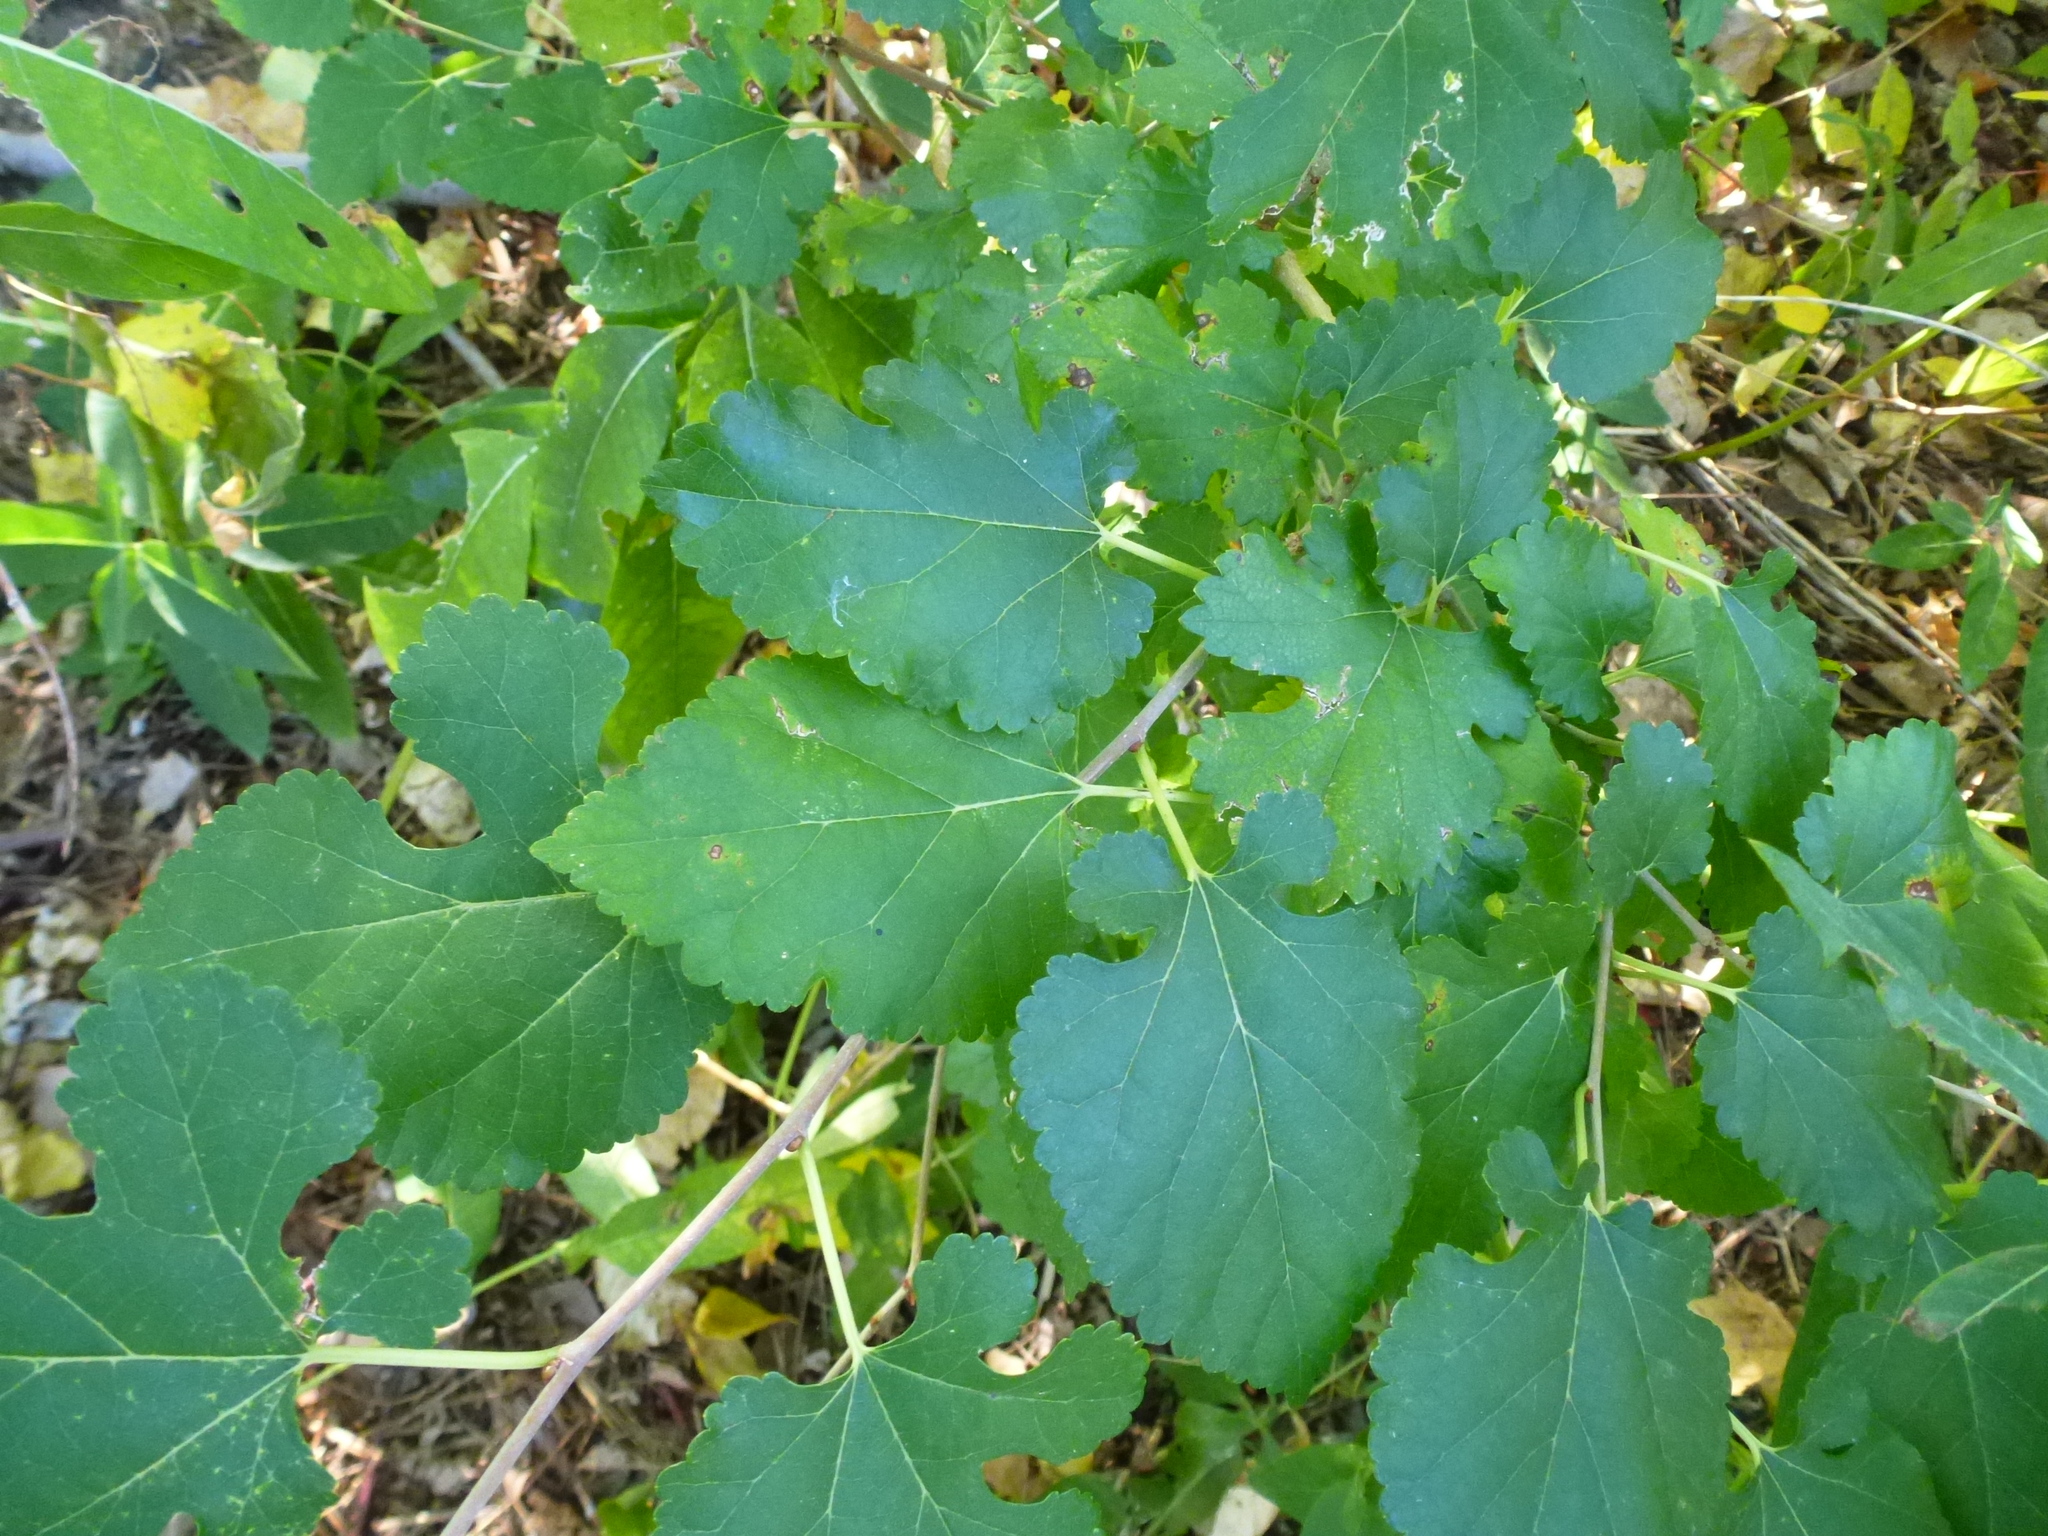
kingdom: Plantae
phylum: Tracheophyta
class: Magnoliopsida
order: Rosales
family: Moraceae
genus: Morus
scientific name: Morus alba
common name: White mulberry
